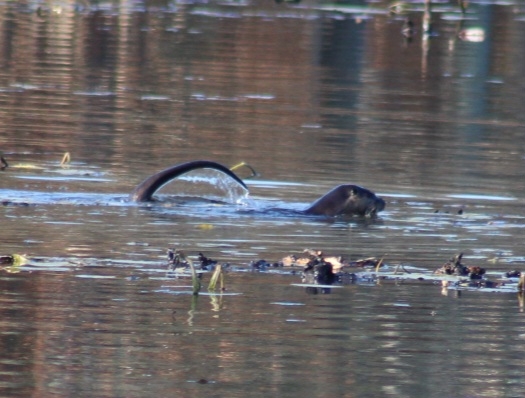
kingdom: Animalia
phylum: Chordata
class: Mammalia
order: Carnivora
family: Mustelidae
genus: Lontra
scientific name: Lontra canadensis
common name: North american river otter
